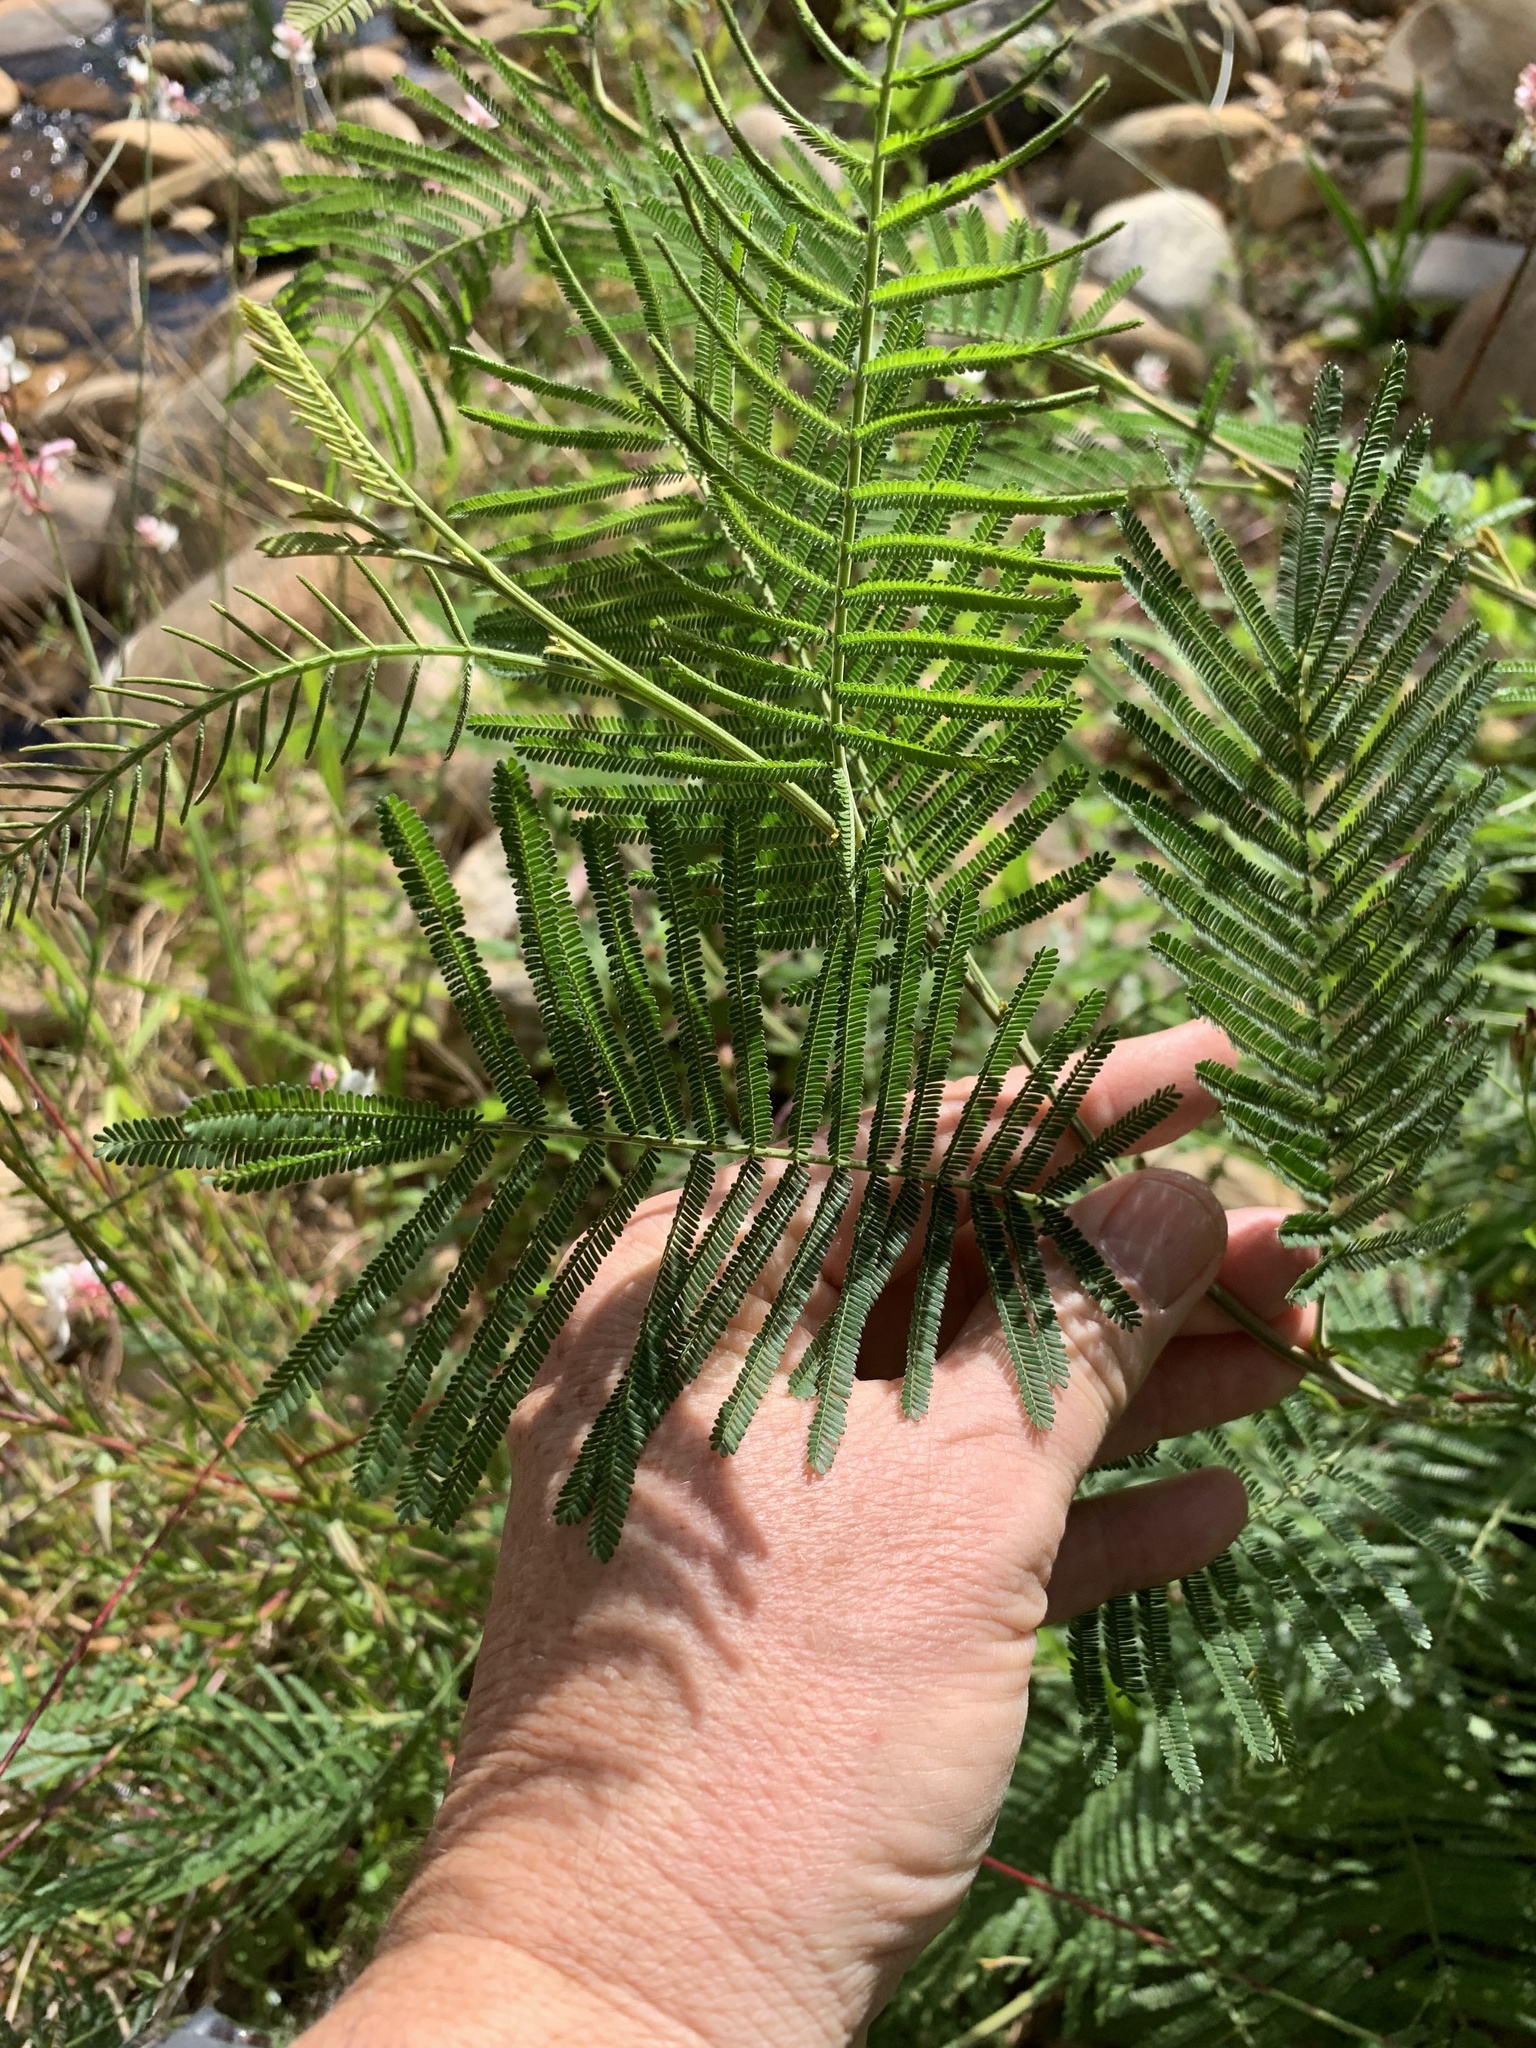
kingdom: Plantae
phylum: Tracheophyta
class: Magnoliopsida
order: Fabales
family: Fabaceae
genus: Acacia
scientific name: Acacia mearnsii
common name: Black wattle
